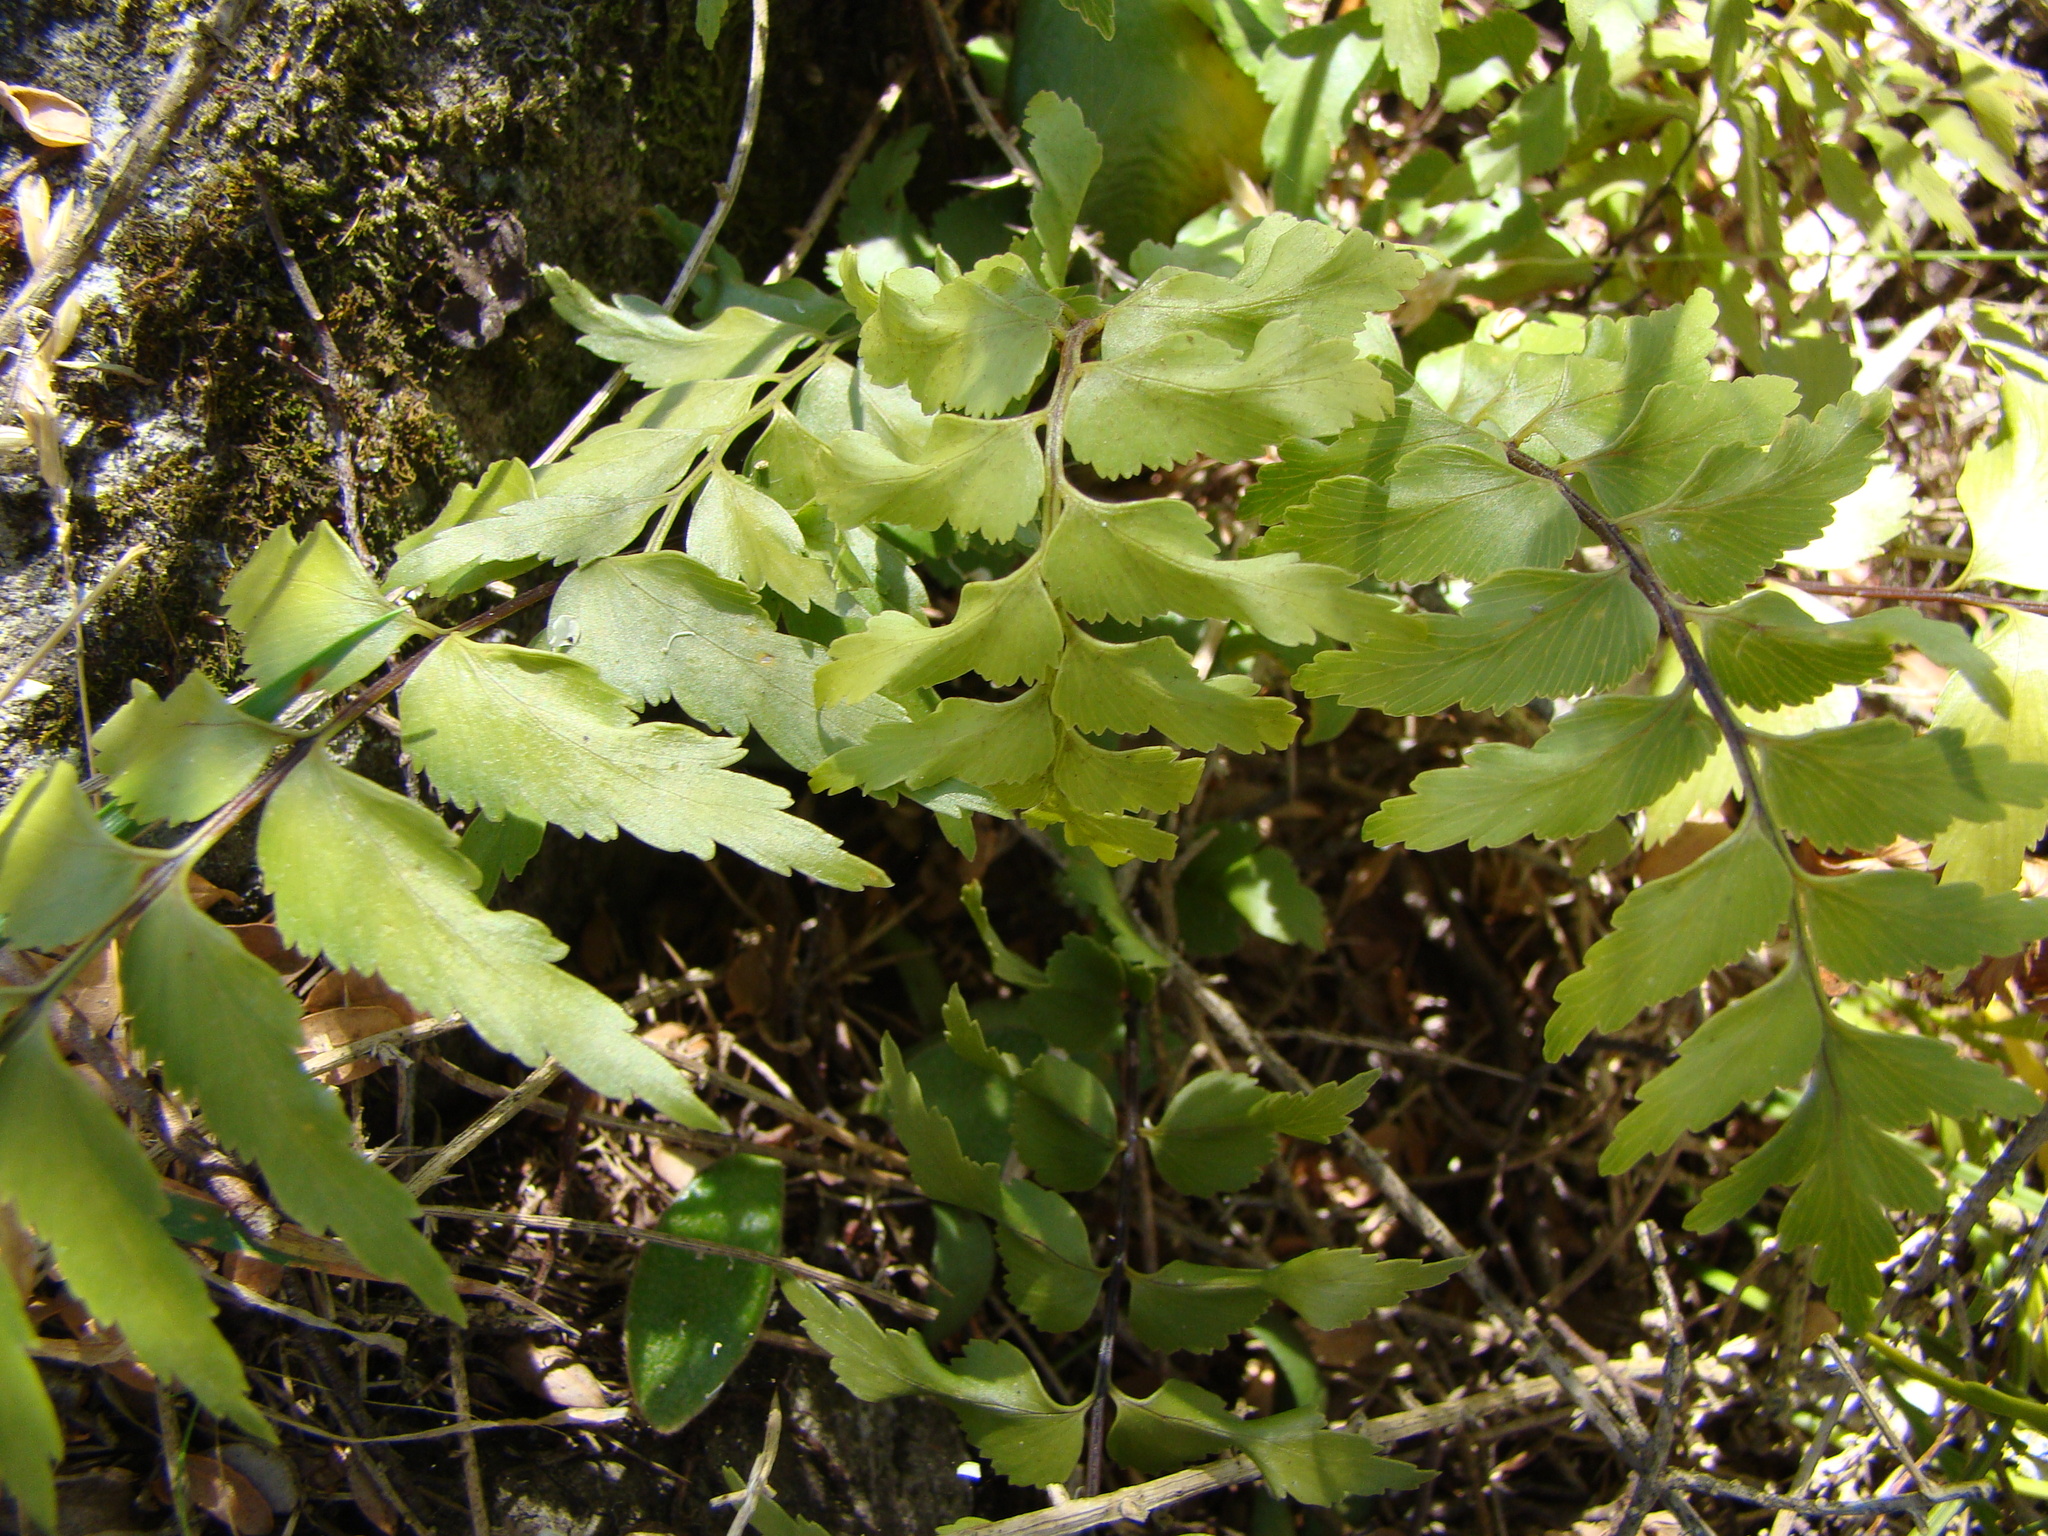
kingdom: Plantae
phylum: Tracheophyta
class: Polypodiopsida
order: Polypodiales
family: Aspleniaceae
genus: Asplenium
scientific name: Asplenium polyodon
